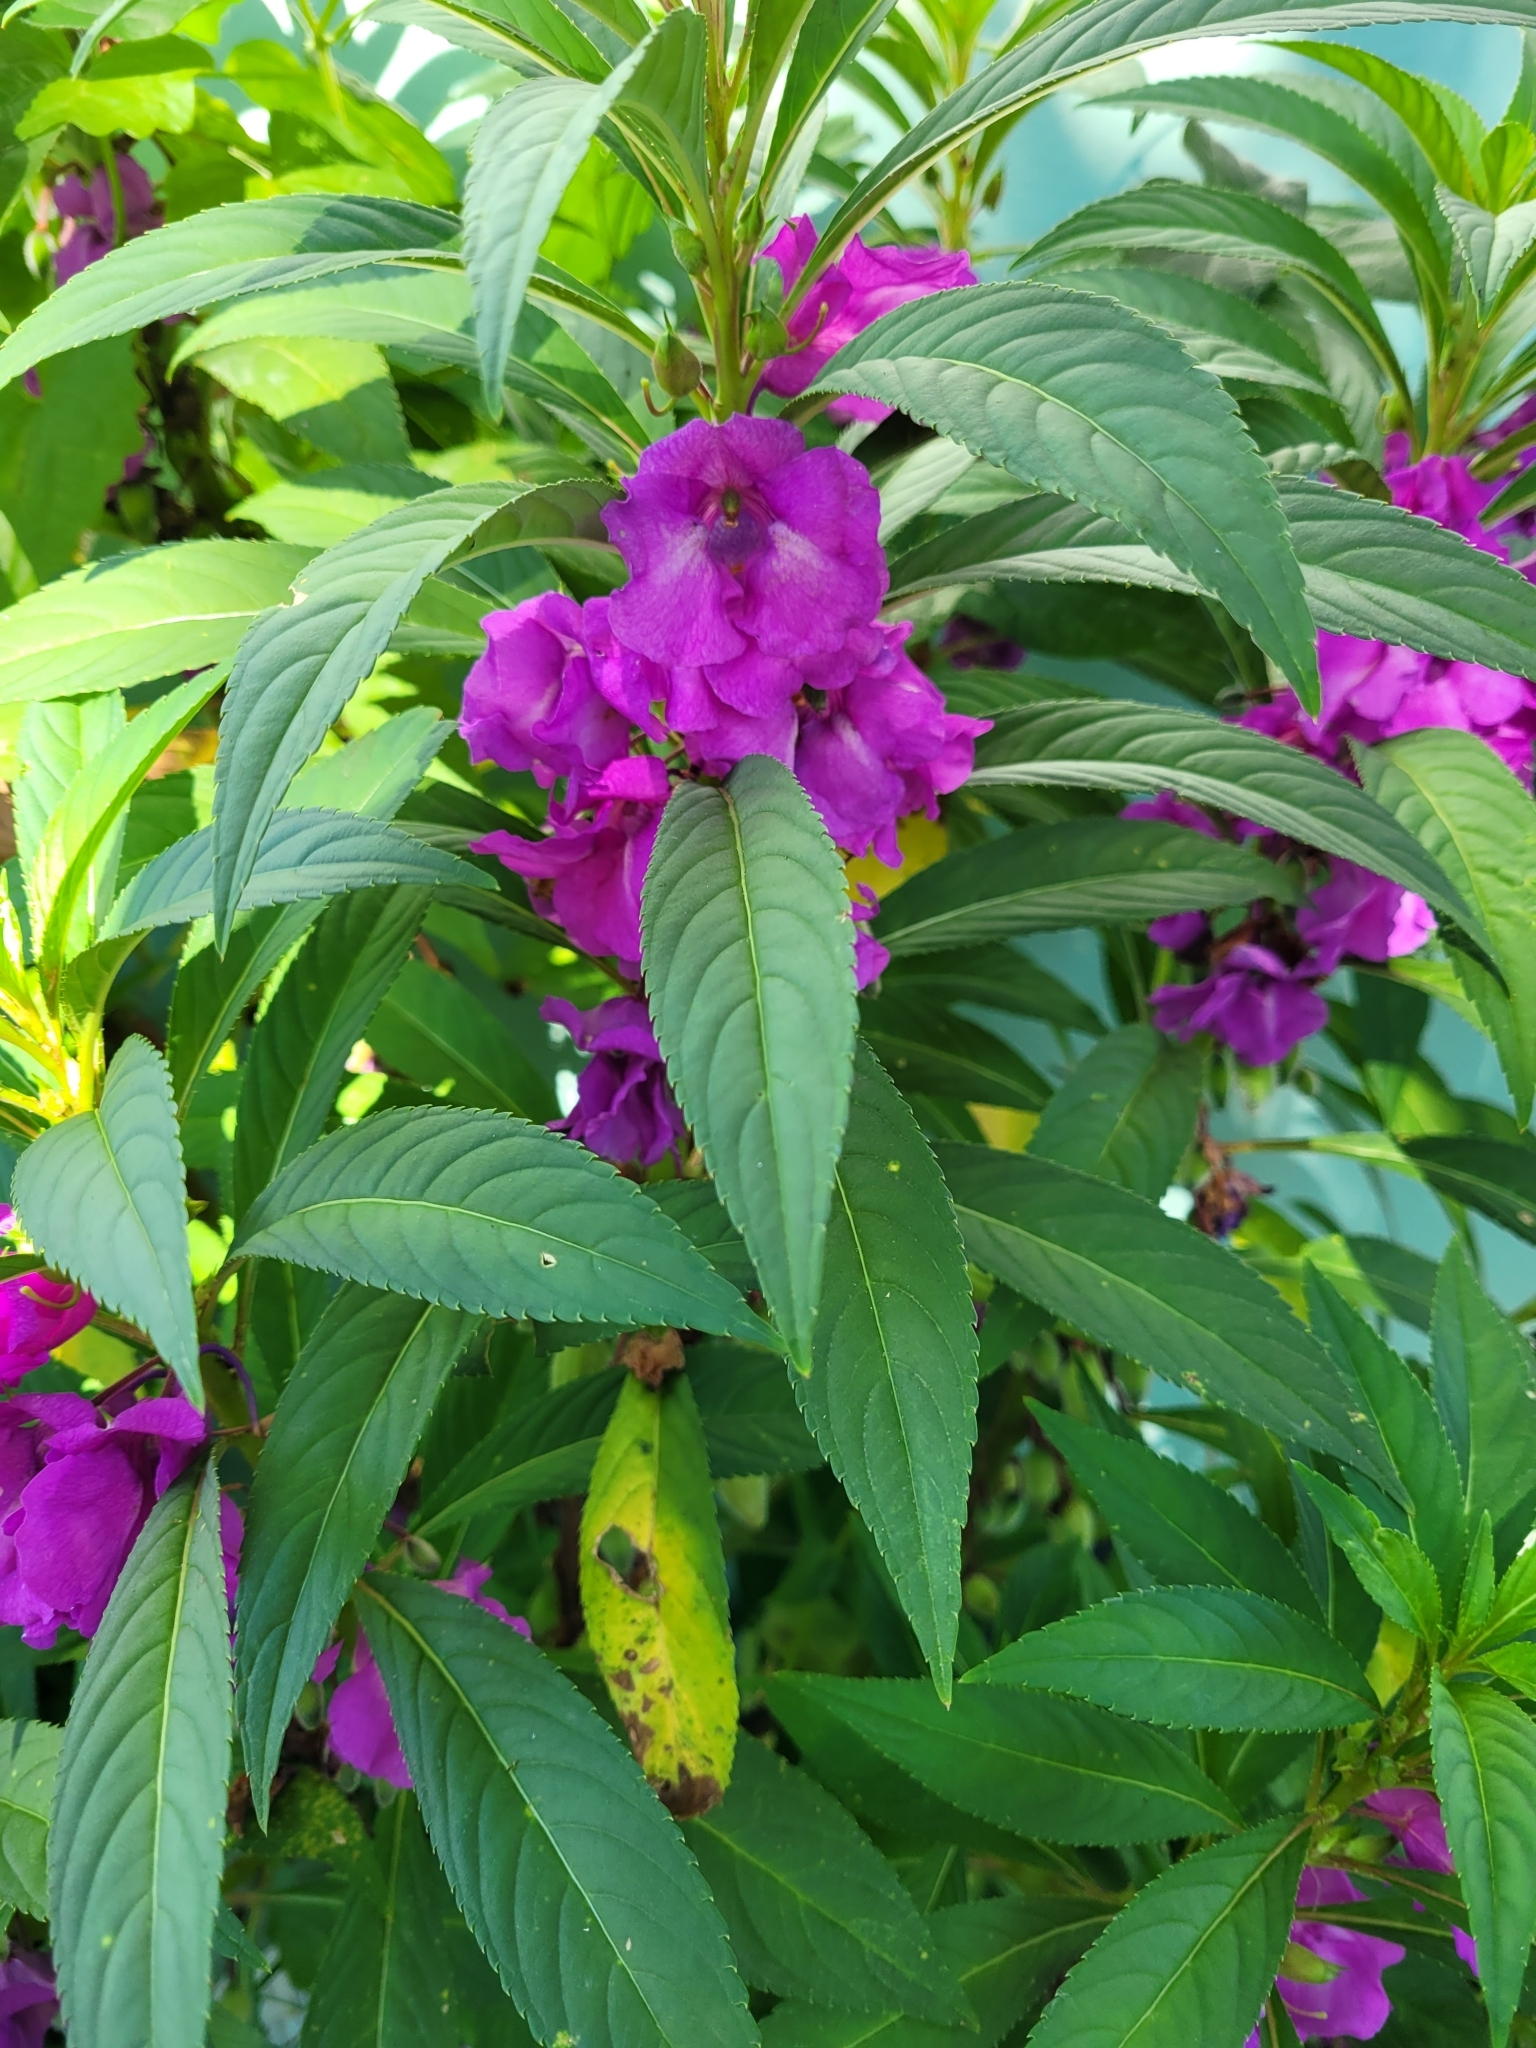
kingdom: Plantae
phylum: Tracheophyta
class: Magnoliopsida
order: Ericales
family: Balsaminaceae
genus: Impatiens
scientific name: Impatiens balsamina
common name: Balsam
